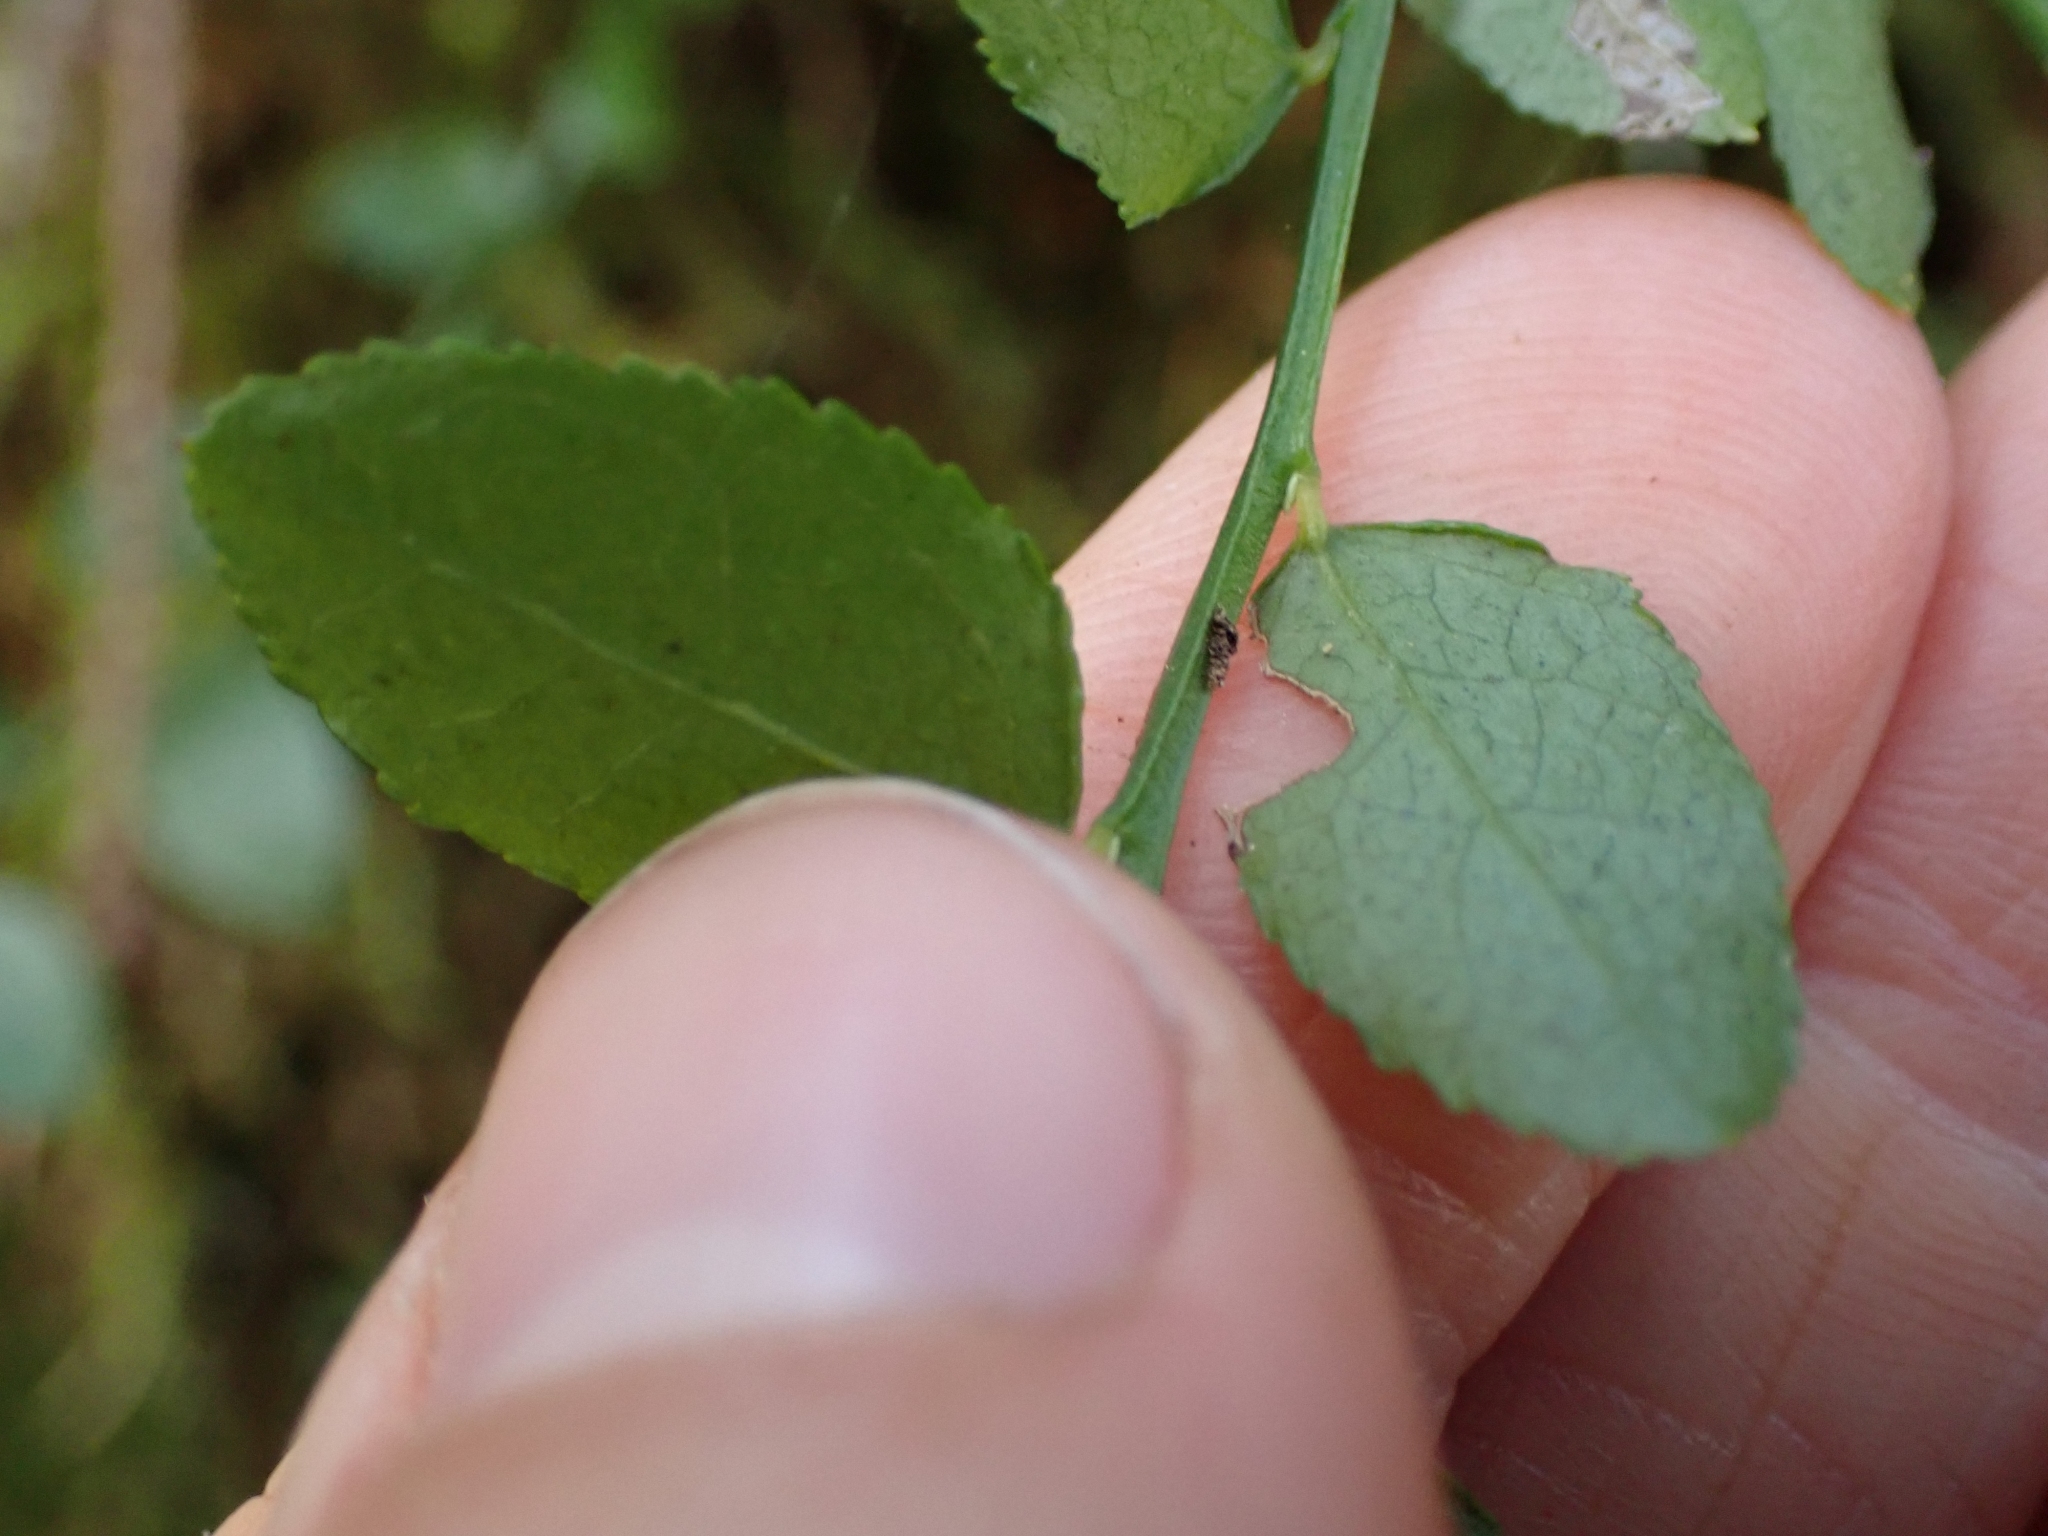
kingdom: Plantae
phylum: Tracheophyta
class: Magnoliopsida
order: Ericales
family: Ericaceae
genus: Vaccinium
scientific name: Vaccinium parvifolium
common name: Red-huckleberry
